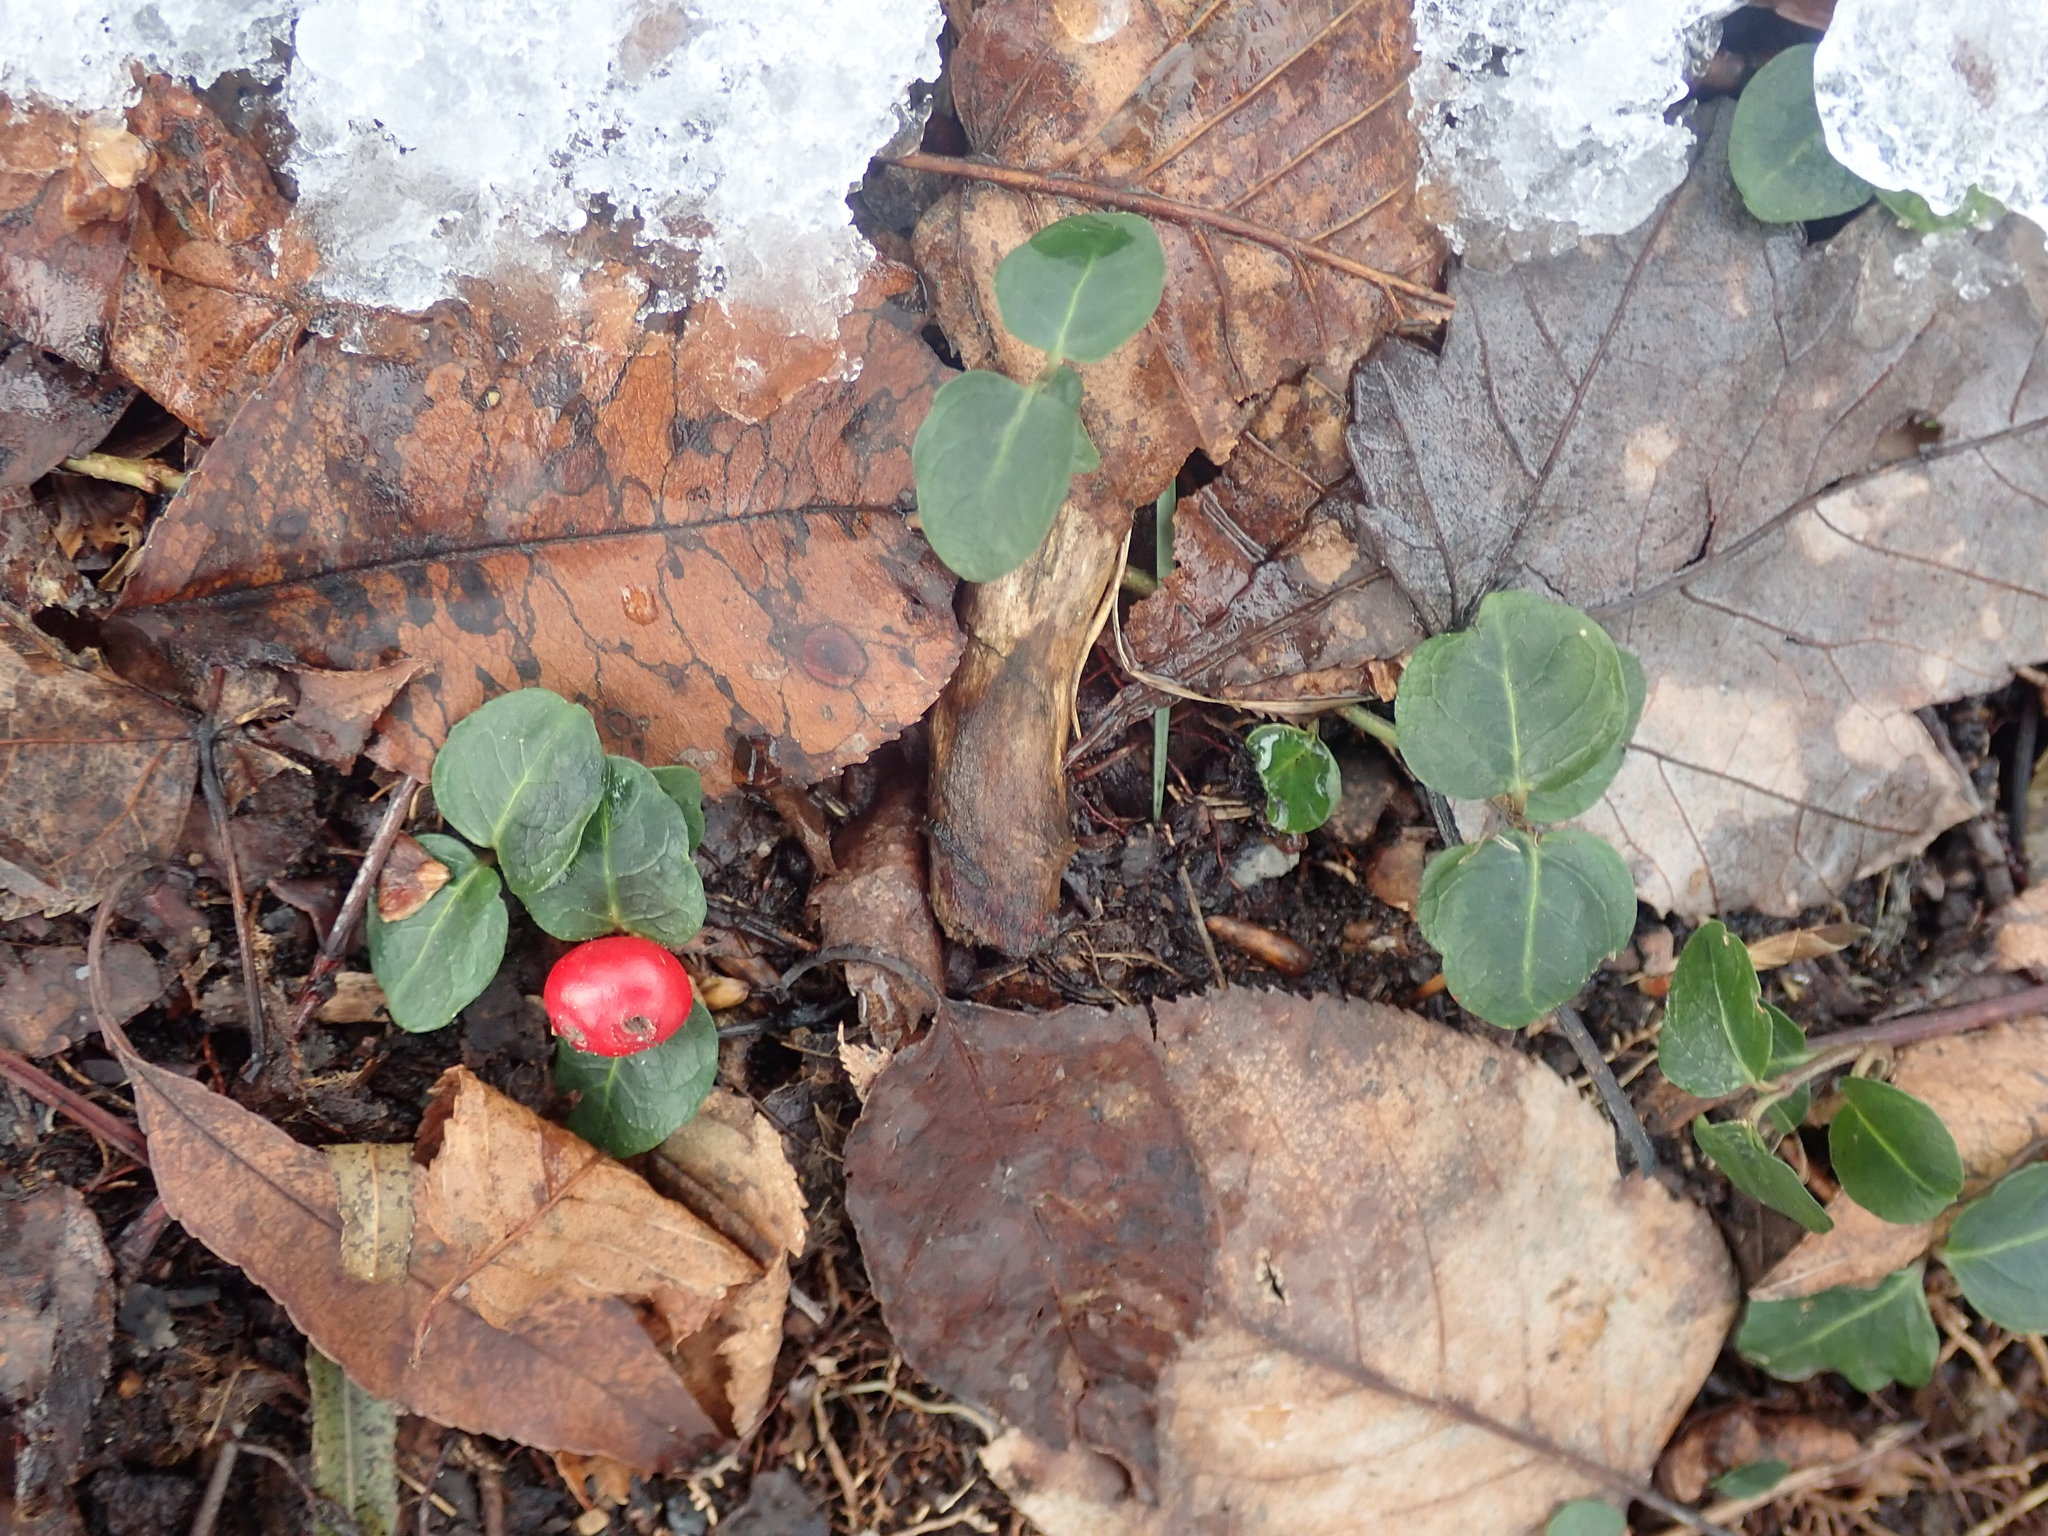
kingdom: Plantae
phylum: Tracheophyta
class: Magnoliopsida
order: Gentianales
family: Rubiaceae
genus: Mitchella
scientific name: Mitchella repens
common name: Partridge-berry
